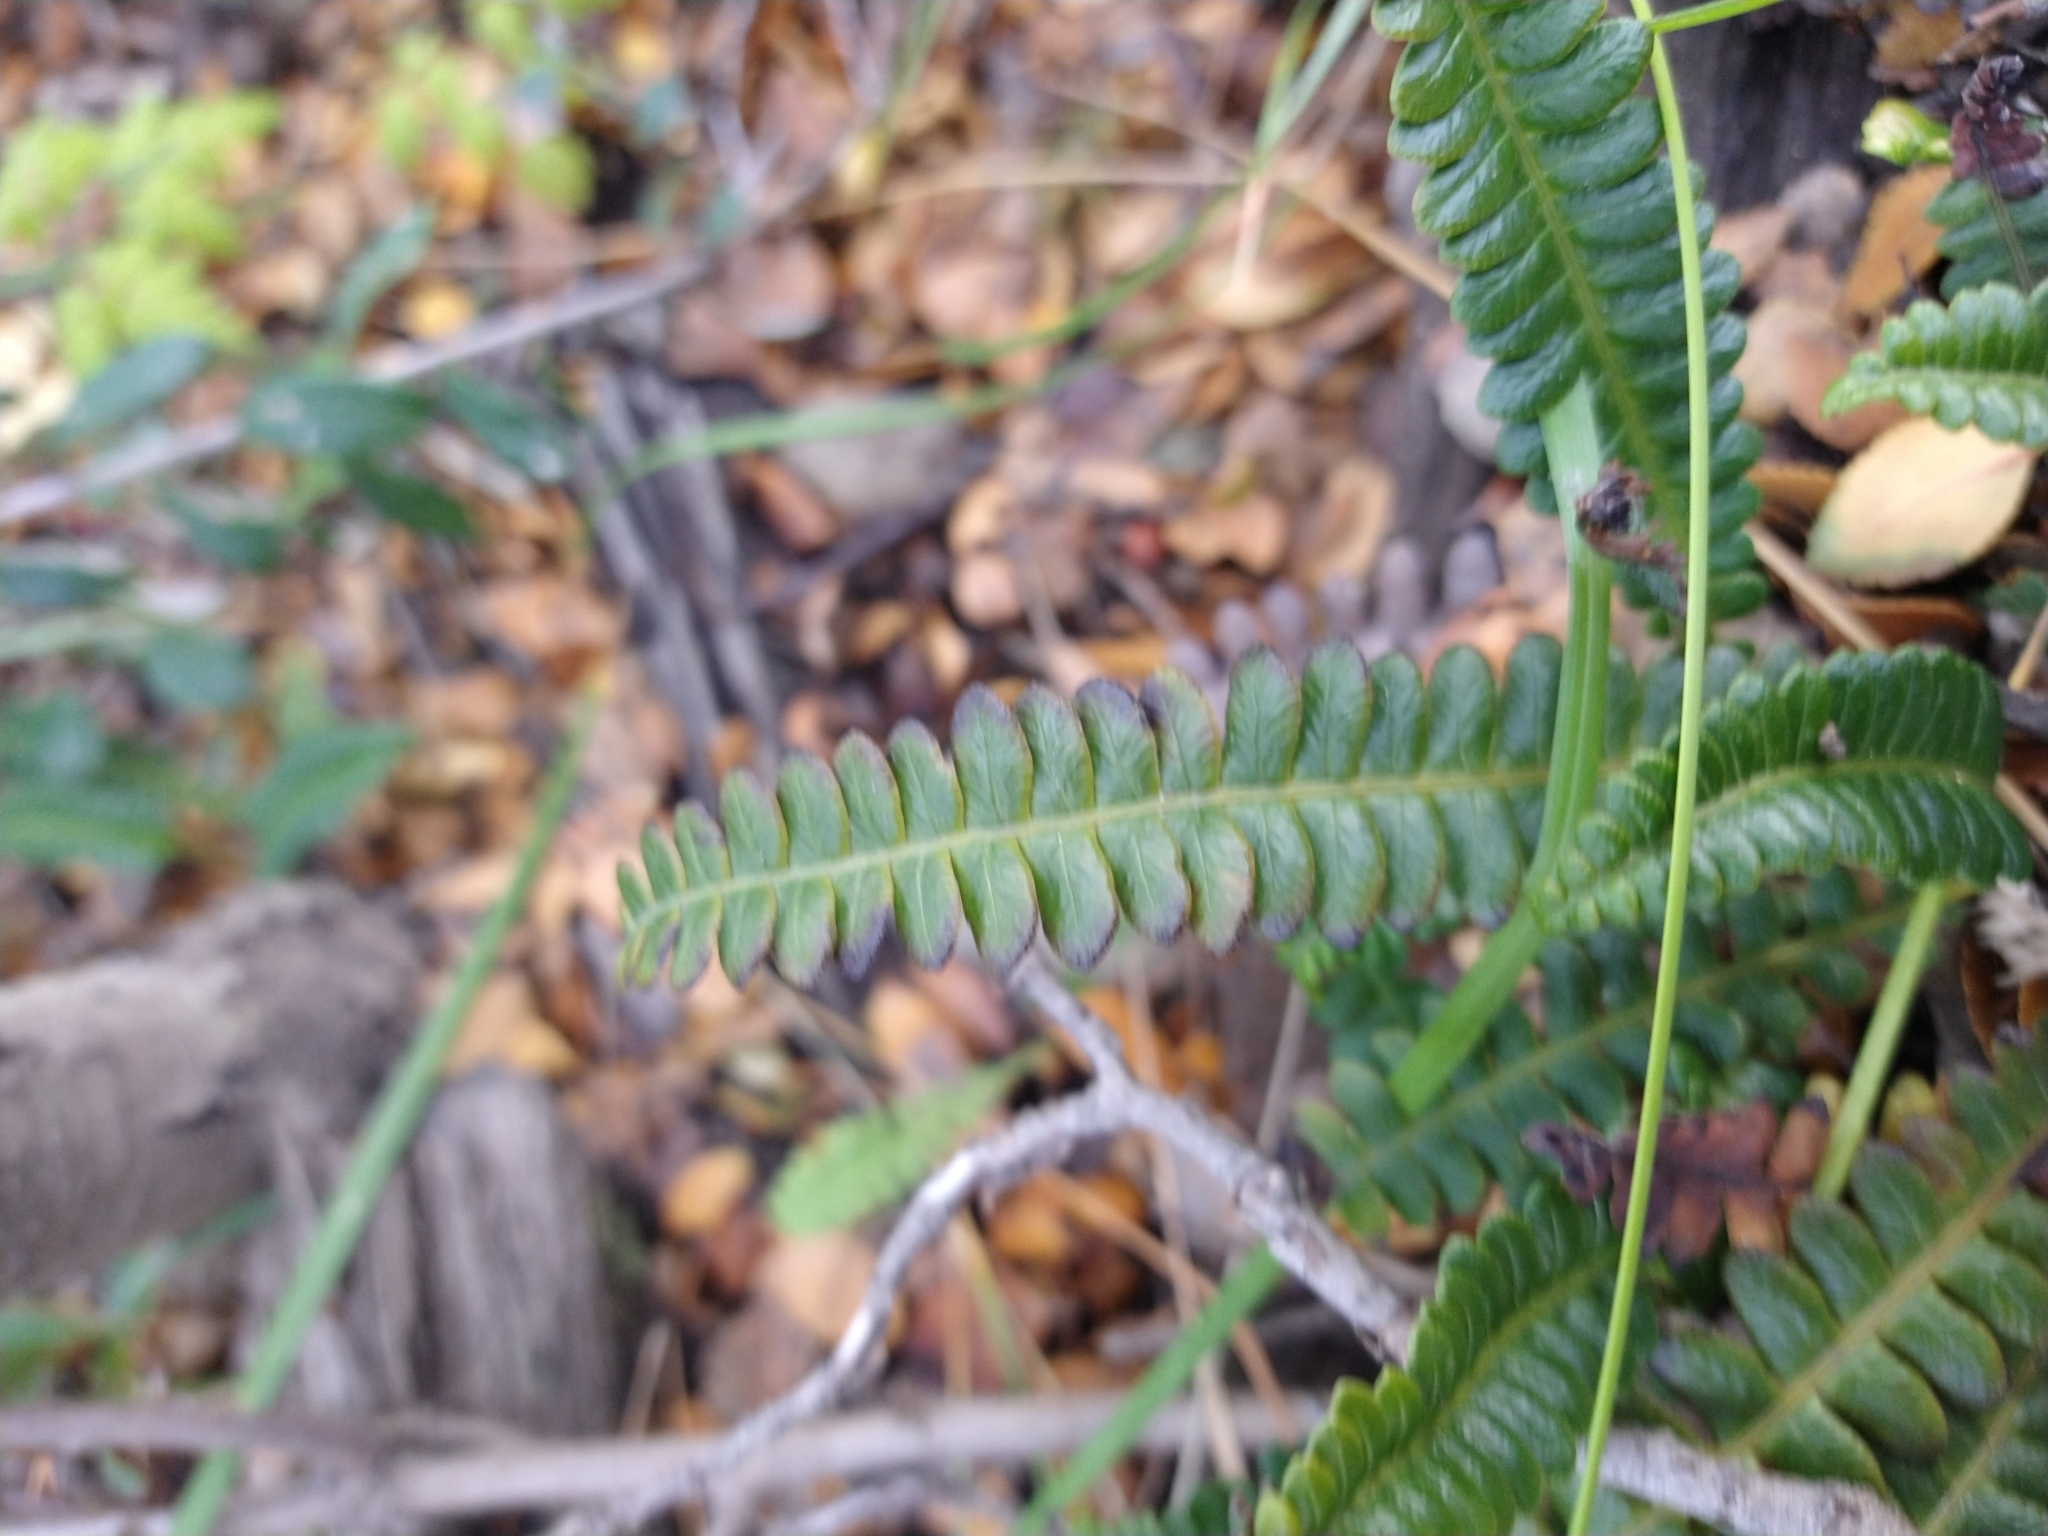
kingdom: Plantae
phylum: Tracheophyta
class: Polypodiopsida
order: Polypodiales
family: Blechnaceae
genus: Austroblechnum
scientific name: Austroblechnum penna-marina
